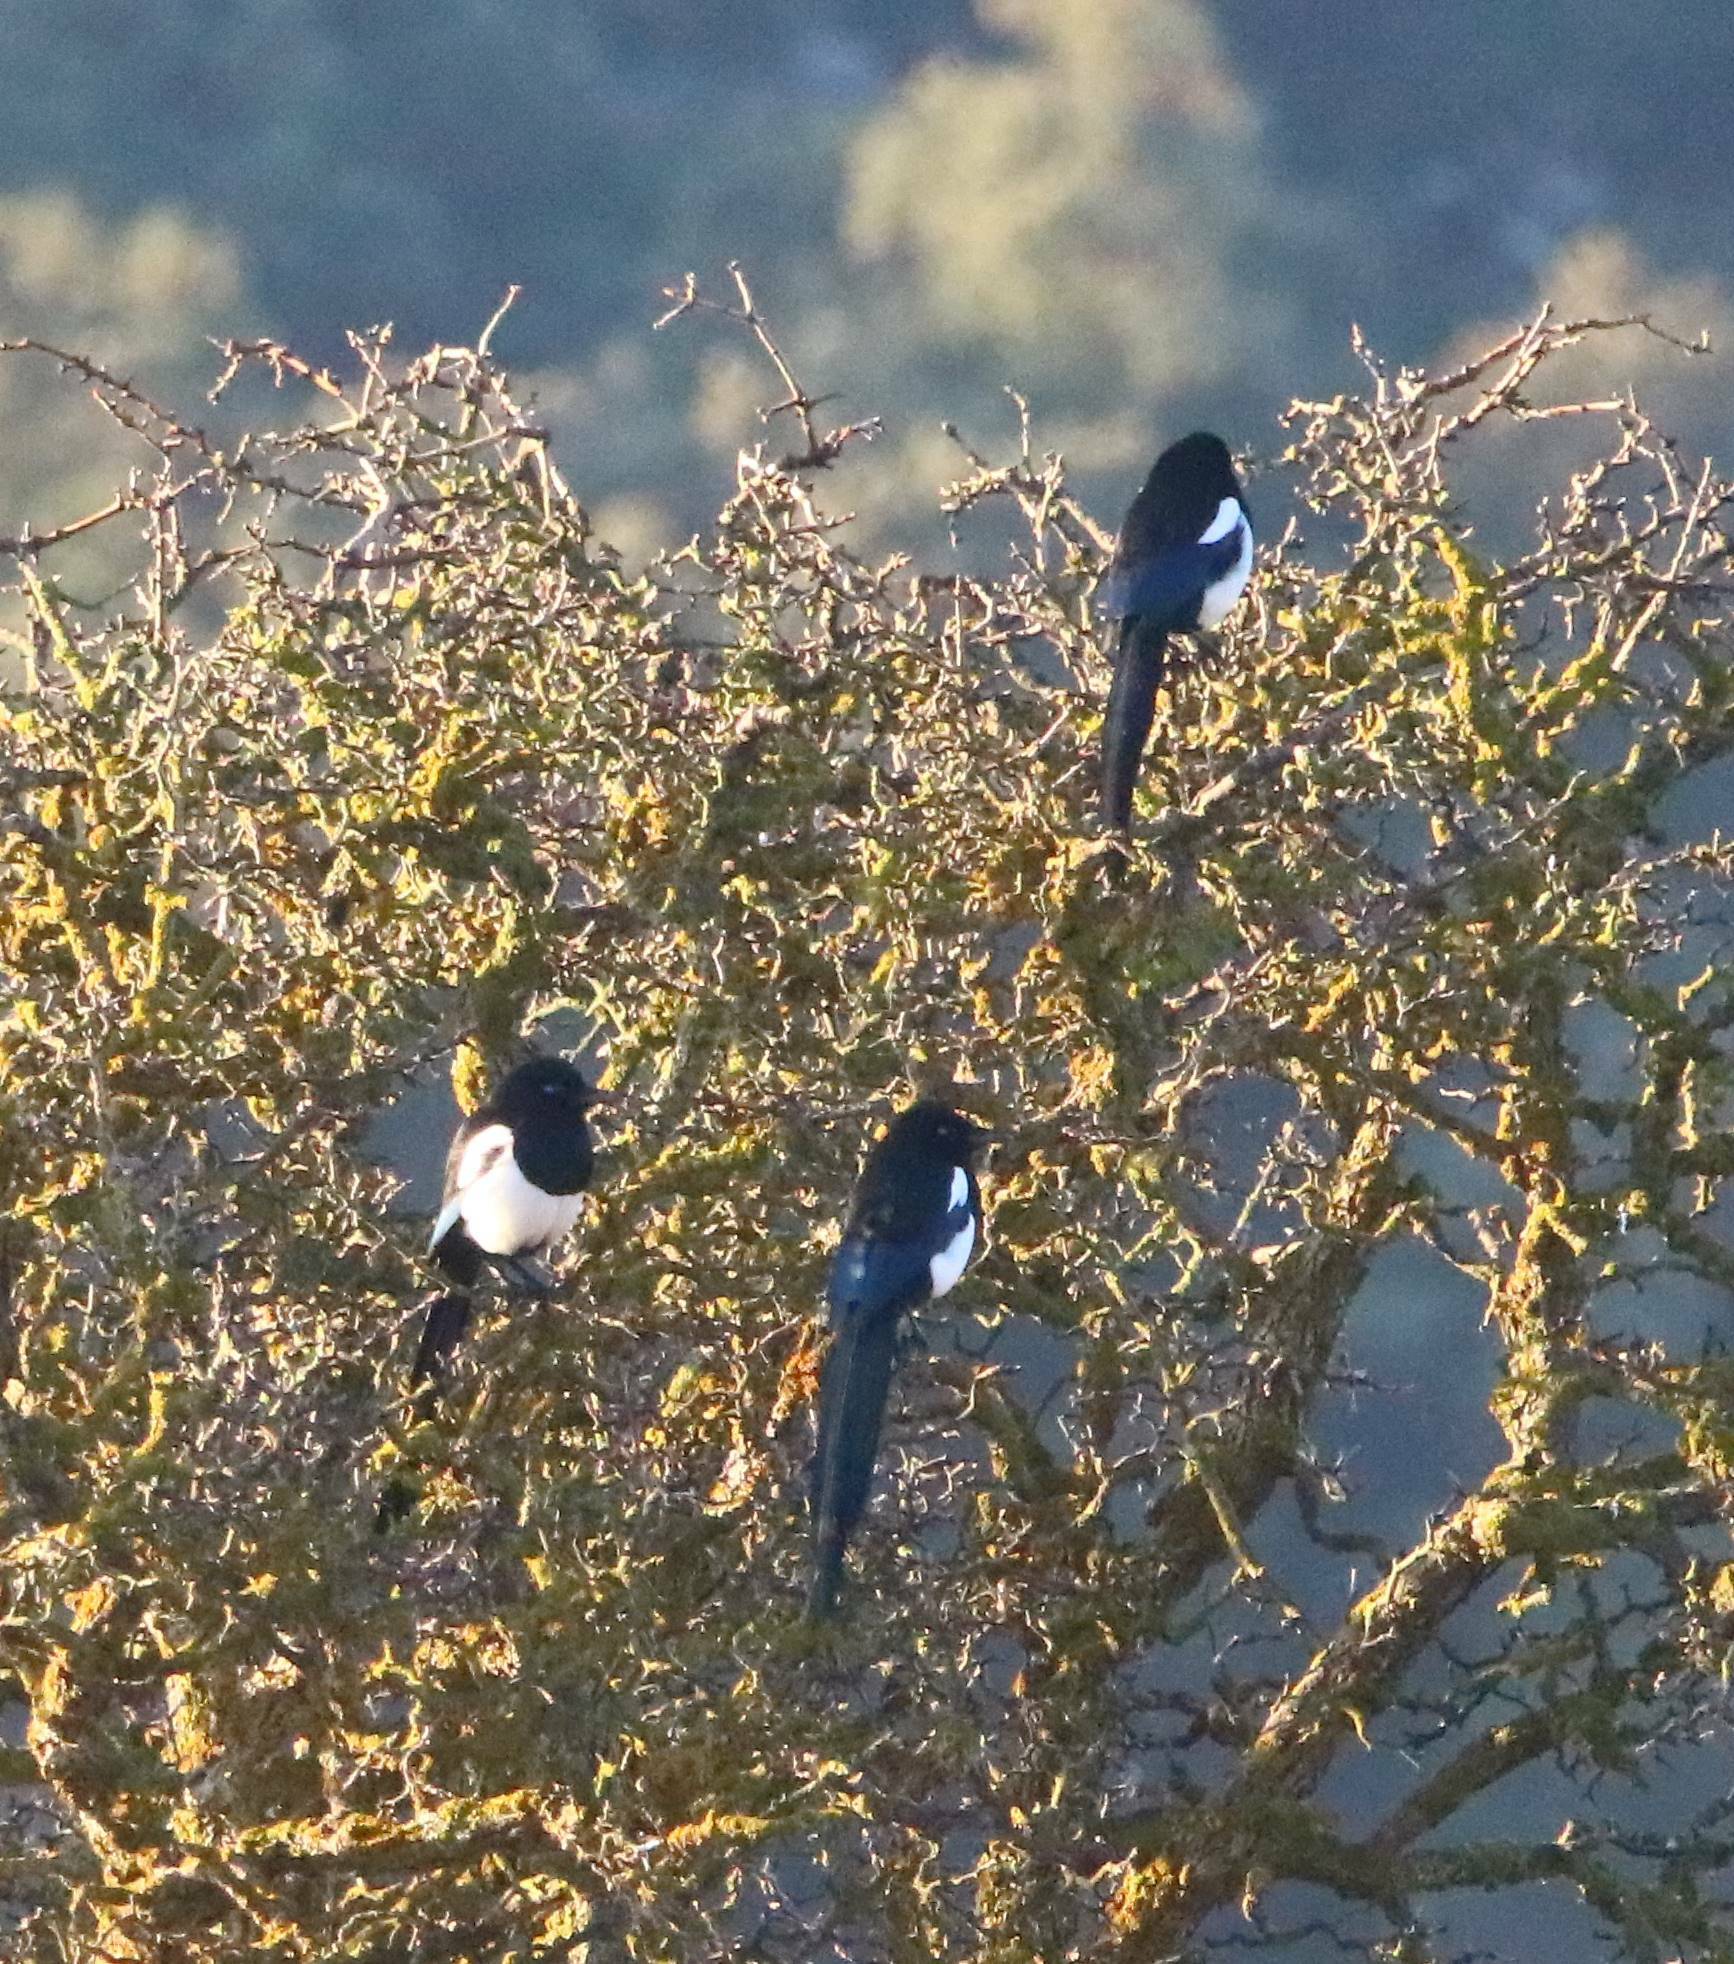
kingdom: Animalia
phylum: Chordata
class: Aves
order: Passeriformes
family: Corvidae
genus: Pica
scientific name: Pica mauritanica
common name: Maghreb magpie
